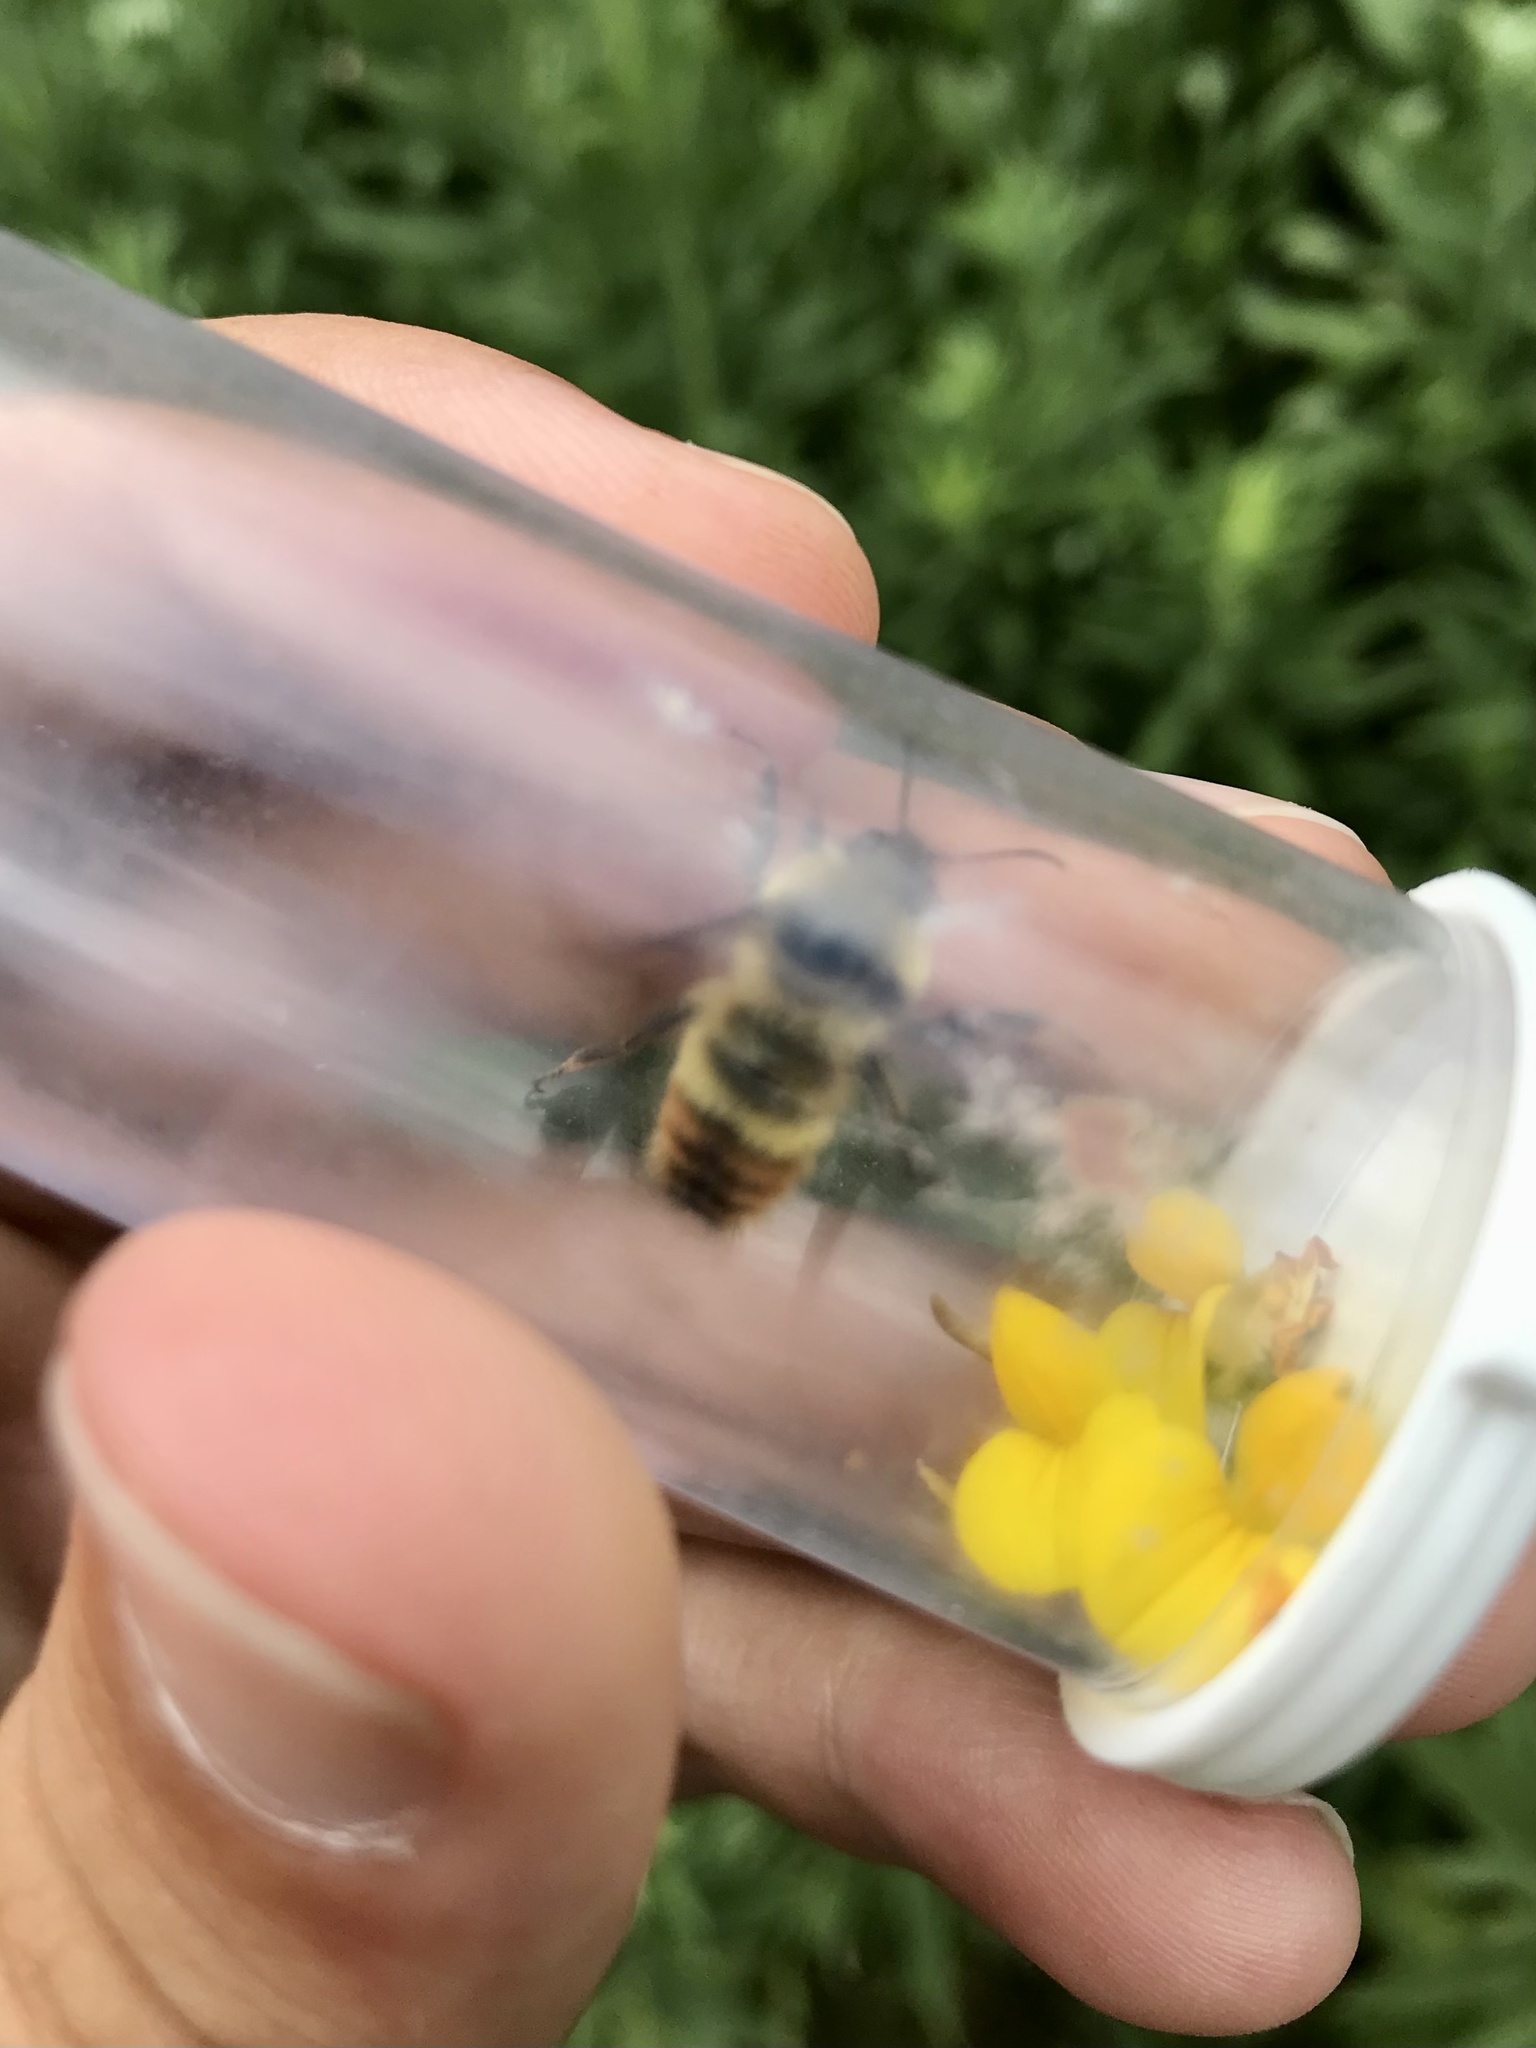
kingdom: Animalia
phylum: Arthropoda
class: Insecta
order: Hymenoptera
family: Apidae
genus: Bombus
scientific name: Bombus rufocinctus
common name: Red-belted bumble bee
